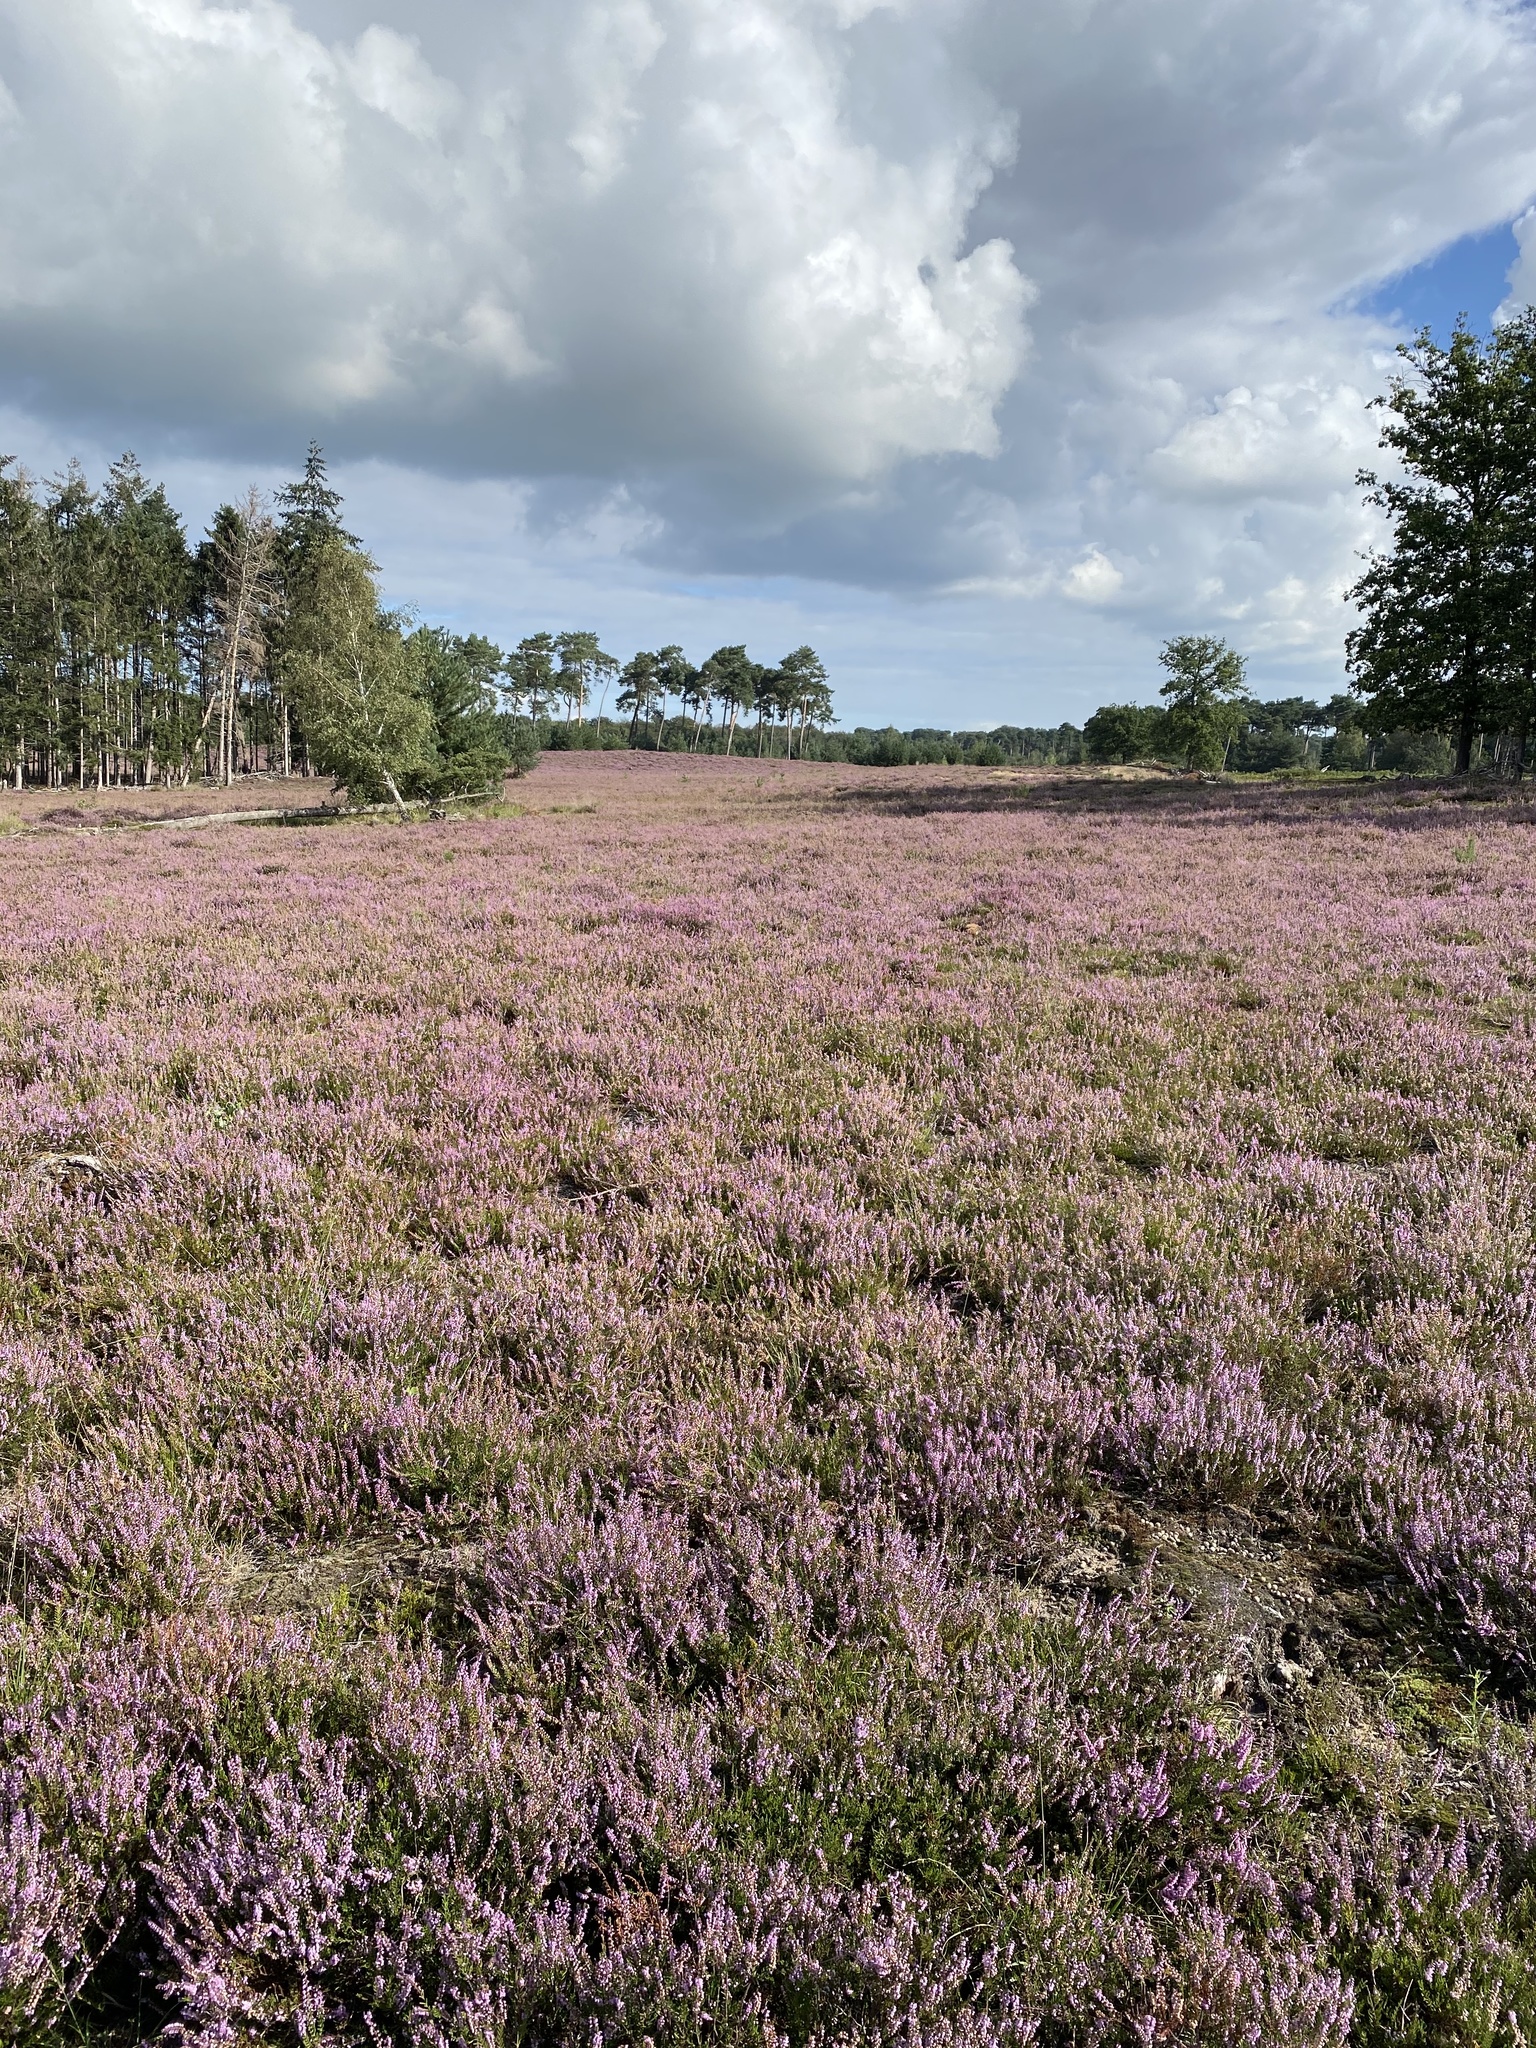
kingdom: Plantae
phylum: Tracheophyta
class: Magnoliopsida
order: Ericales
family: Ericaceae
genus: Calluna
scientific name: Calluna vulgaris
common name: Heather
